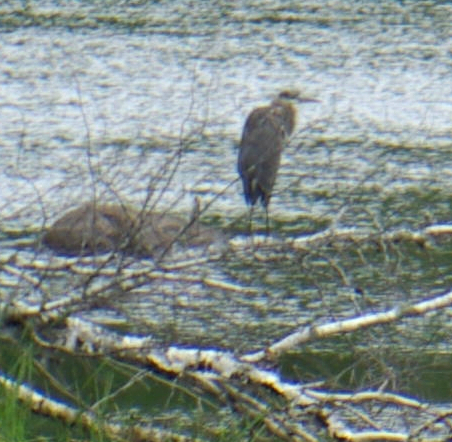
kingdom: Animalia
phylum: Chordata
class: Aves
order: Pelecaniformes
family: Ardeidae
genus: Ardea
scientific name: Ardea herodias
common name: Great blue heron
